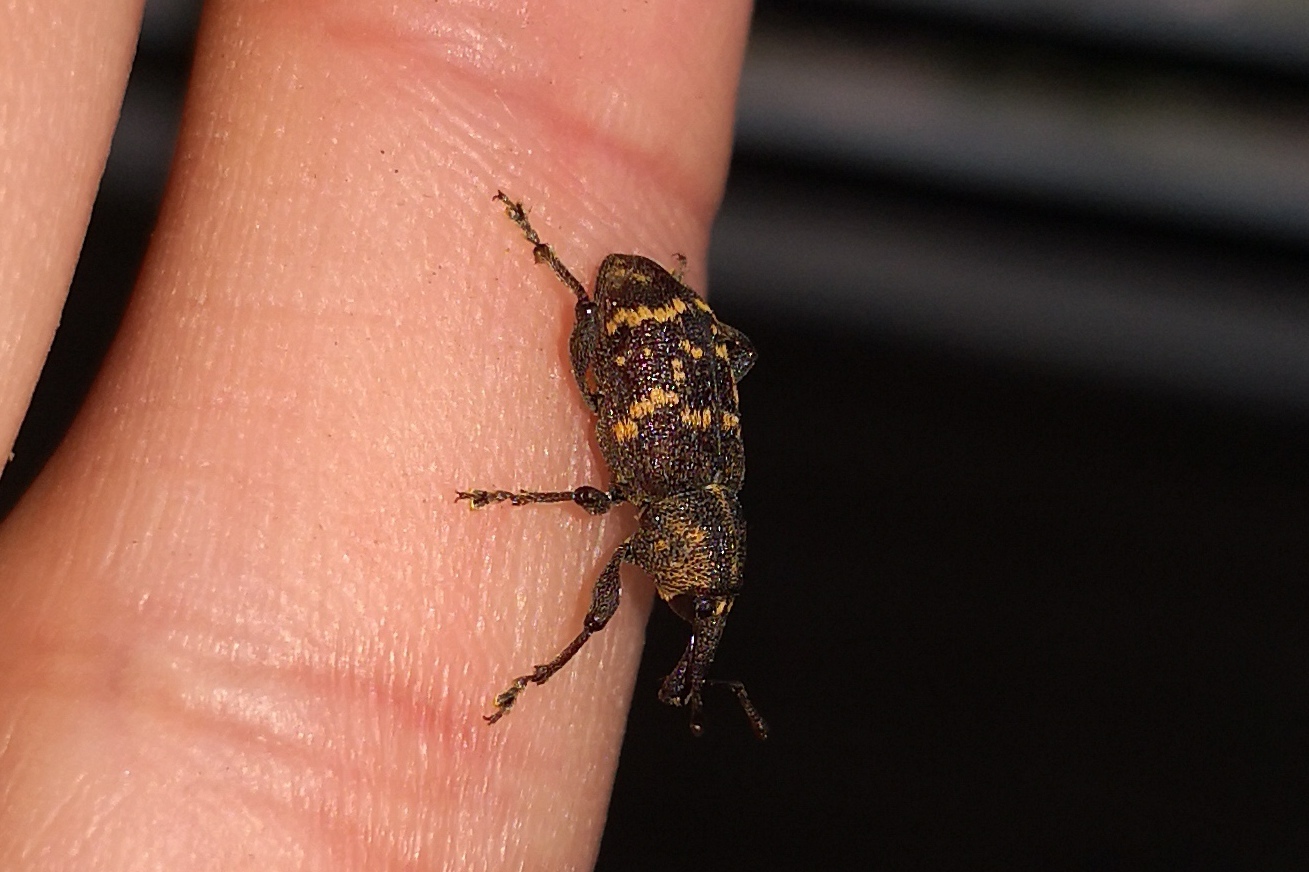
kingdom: Animalia
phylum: Arthropoda
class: Insecta
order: Coleoptera
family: Curculionidae
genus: Hylobius
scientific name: Hylobius abietis
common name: Large pine weevil
